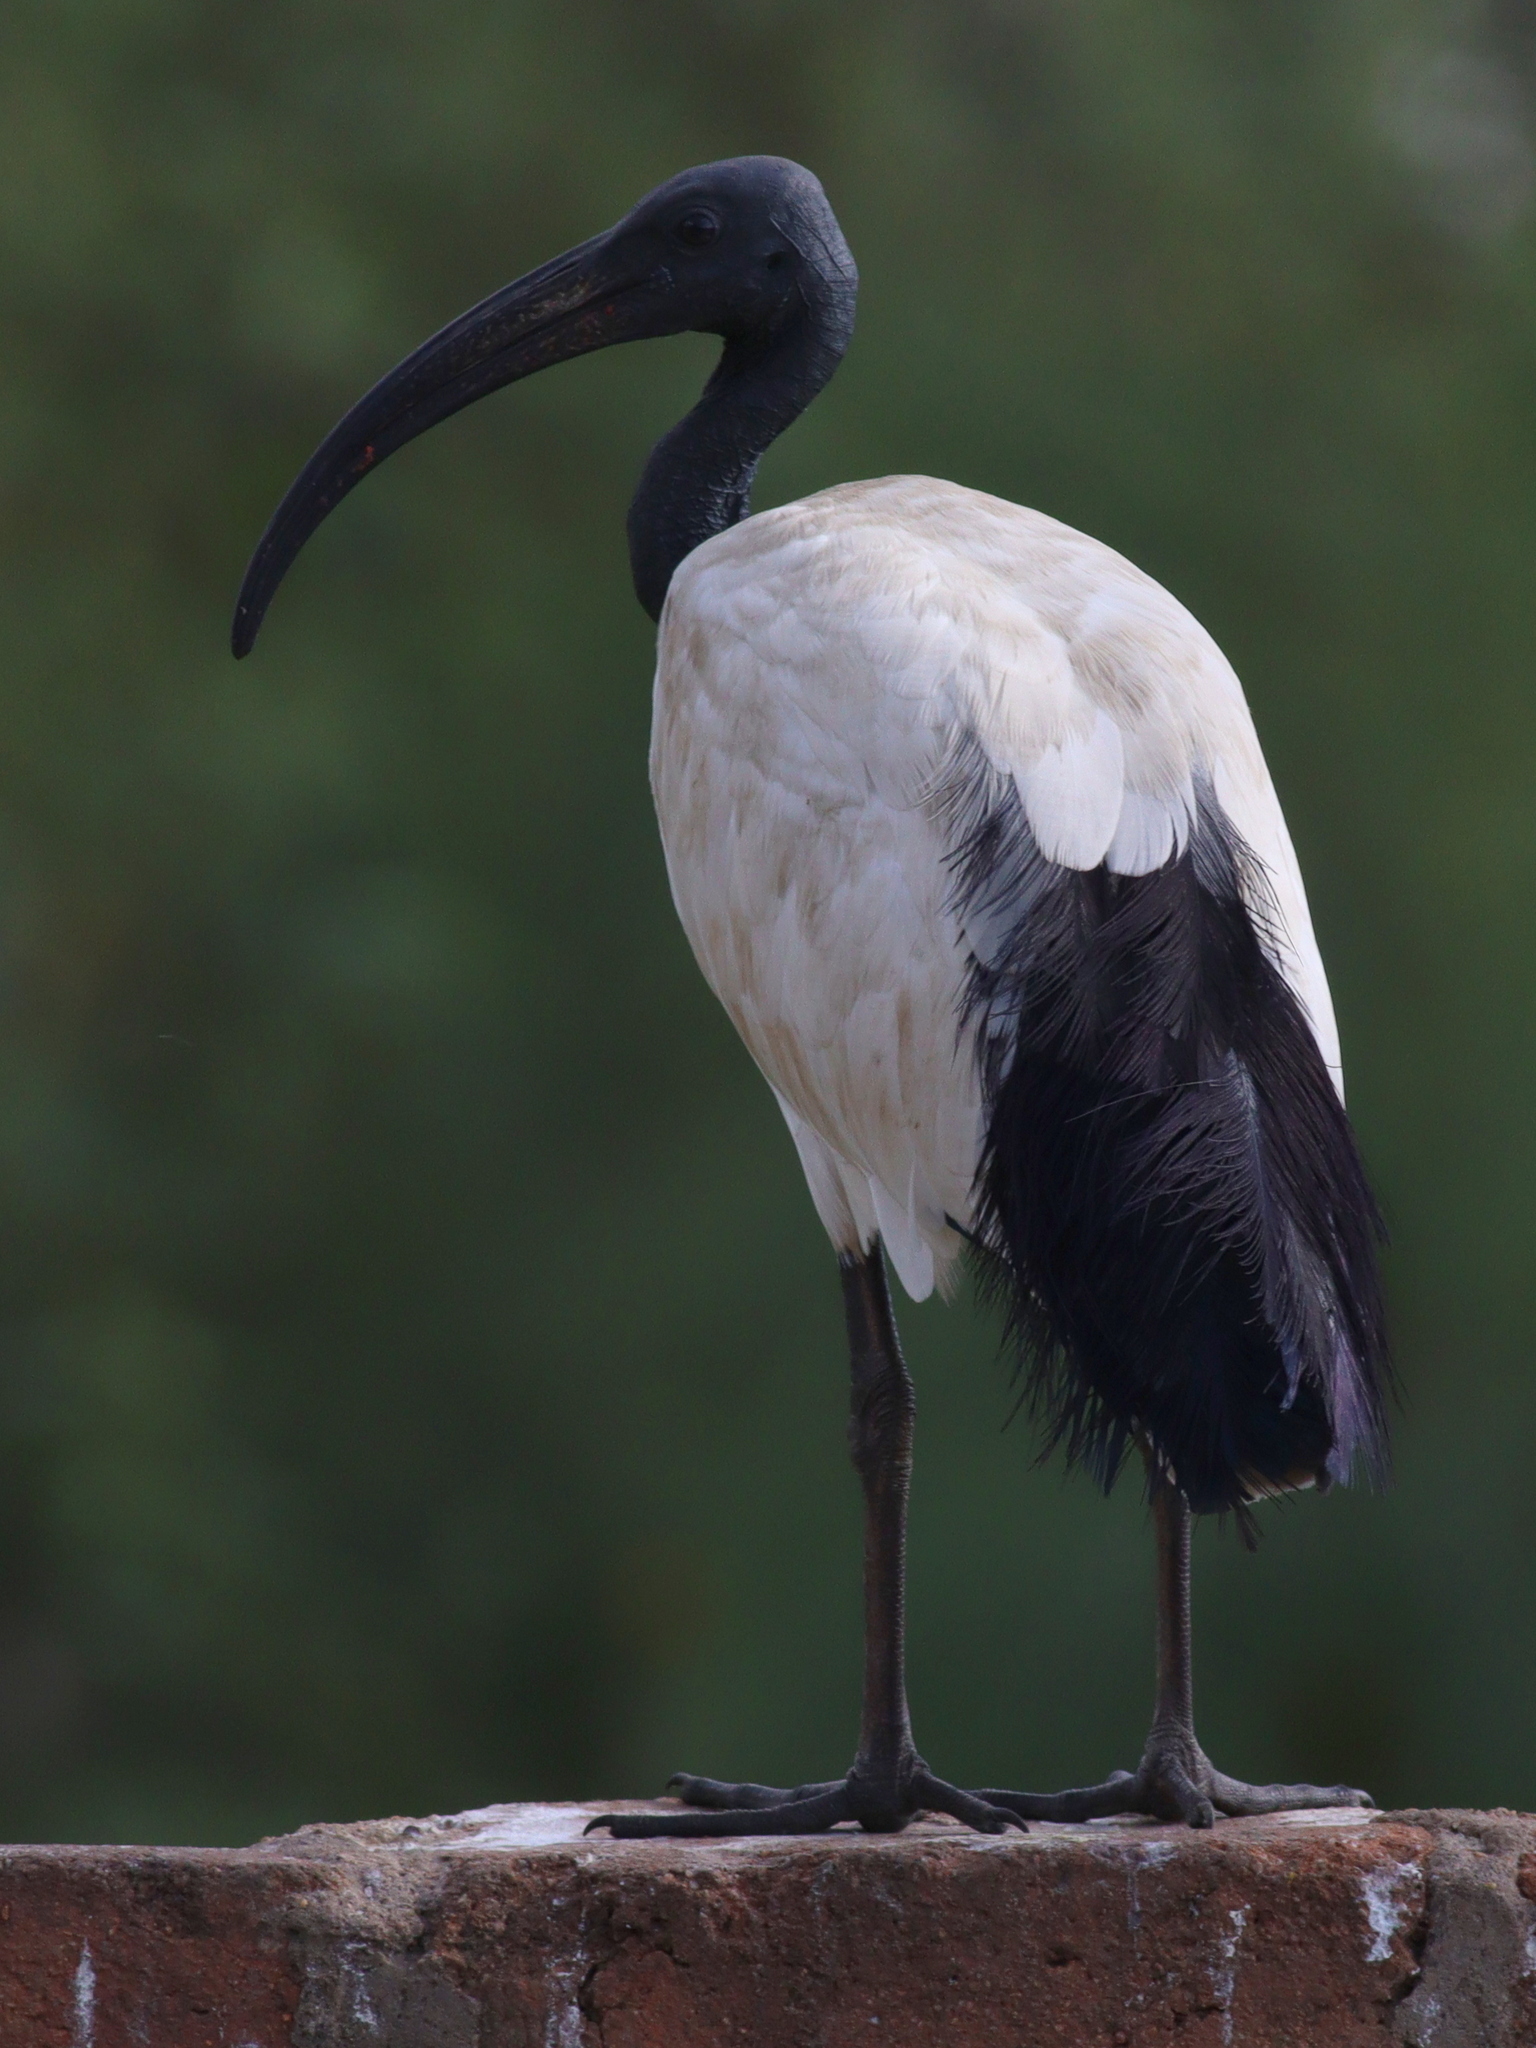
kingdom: Animalia
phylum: Chordata
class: Aves
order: Pelecaniformes
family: Threskiornithidae
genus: Threskiornis
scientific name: Threskiornis aethiopicus
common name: Sacred ibis
